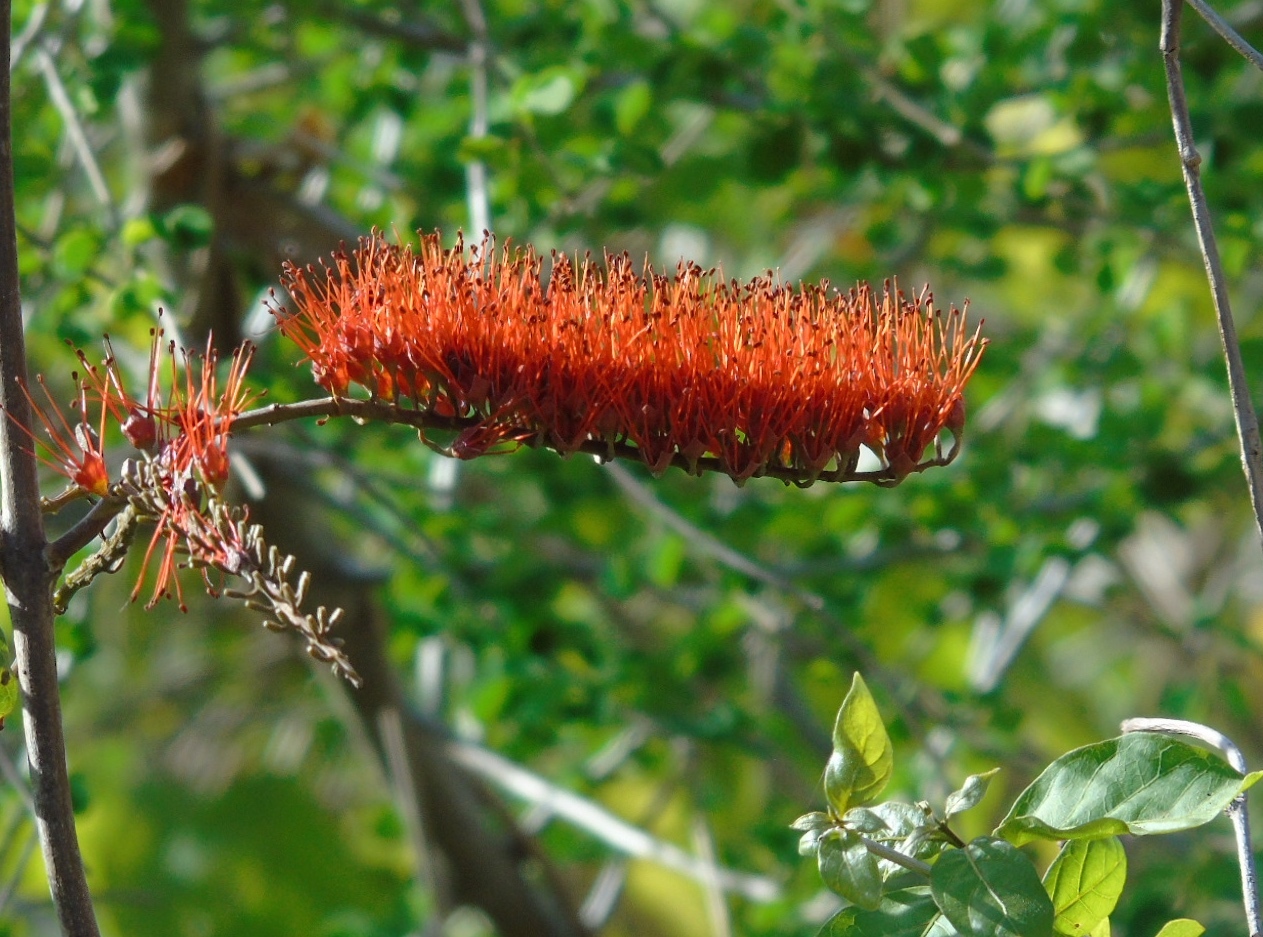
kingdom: Plantae
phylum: Tracheophyta
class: Magnoliopsida
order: Myrtales
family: Combretaceae
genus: Combretum
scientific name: Combretum farinosum
